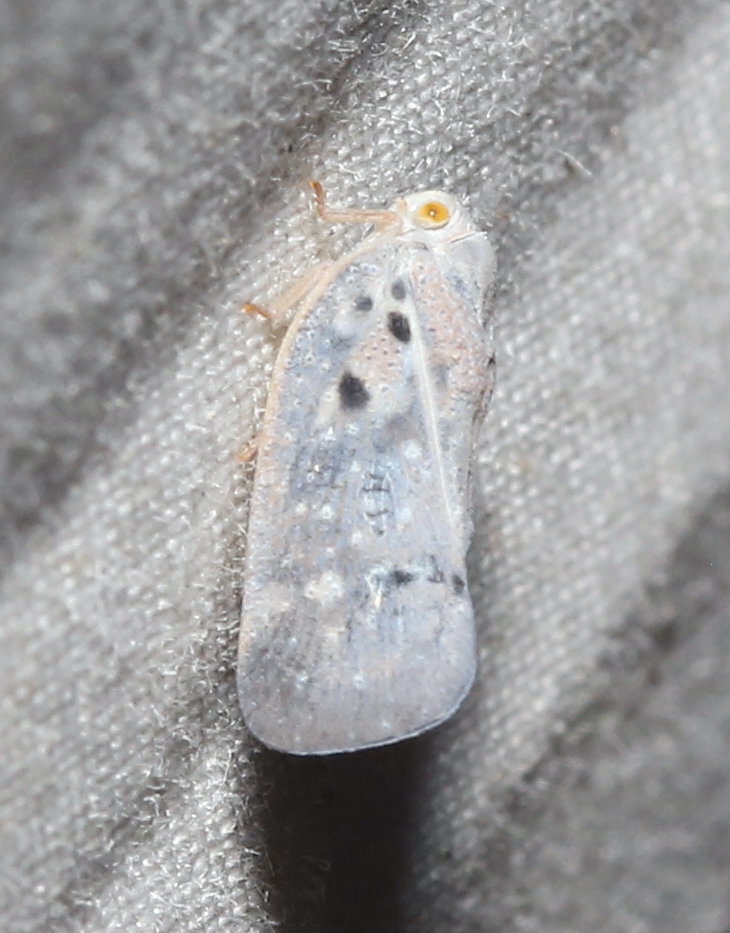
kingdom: Animalia
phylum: Arthropoda
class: Insecta
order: Hemiptera
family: Flatidae
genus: Metcalfa
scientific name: Metcalfa pruinosa
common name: Citrus flatid planthopper
